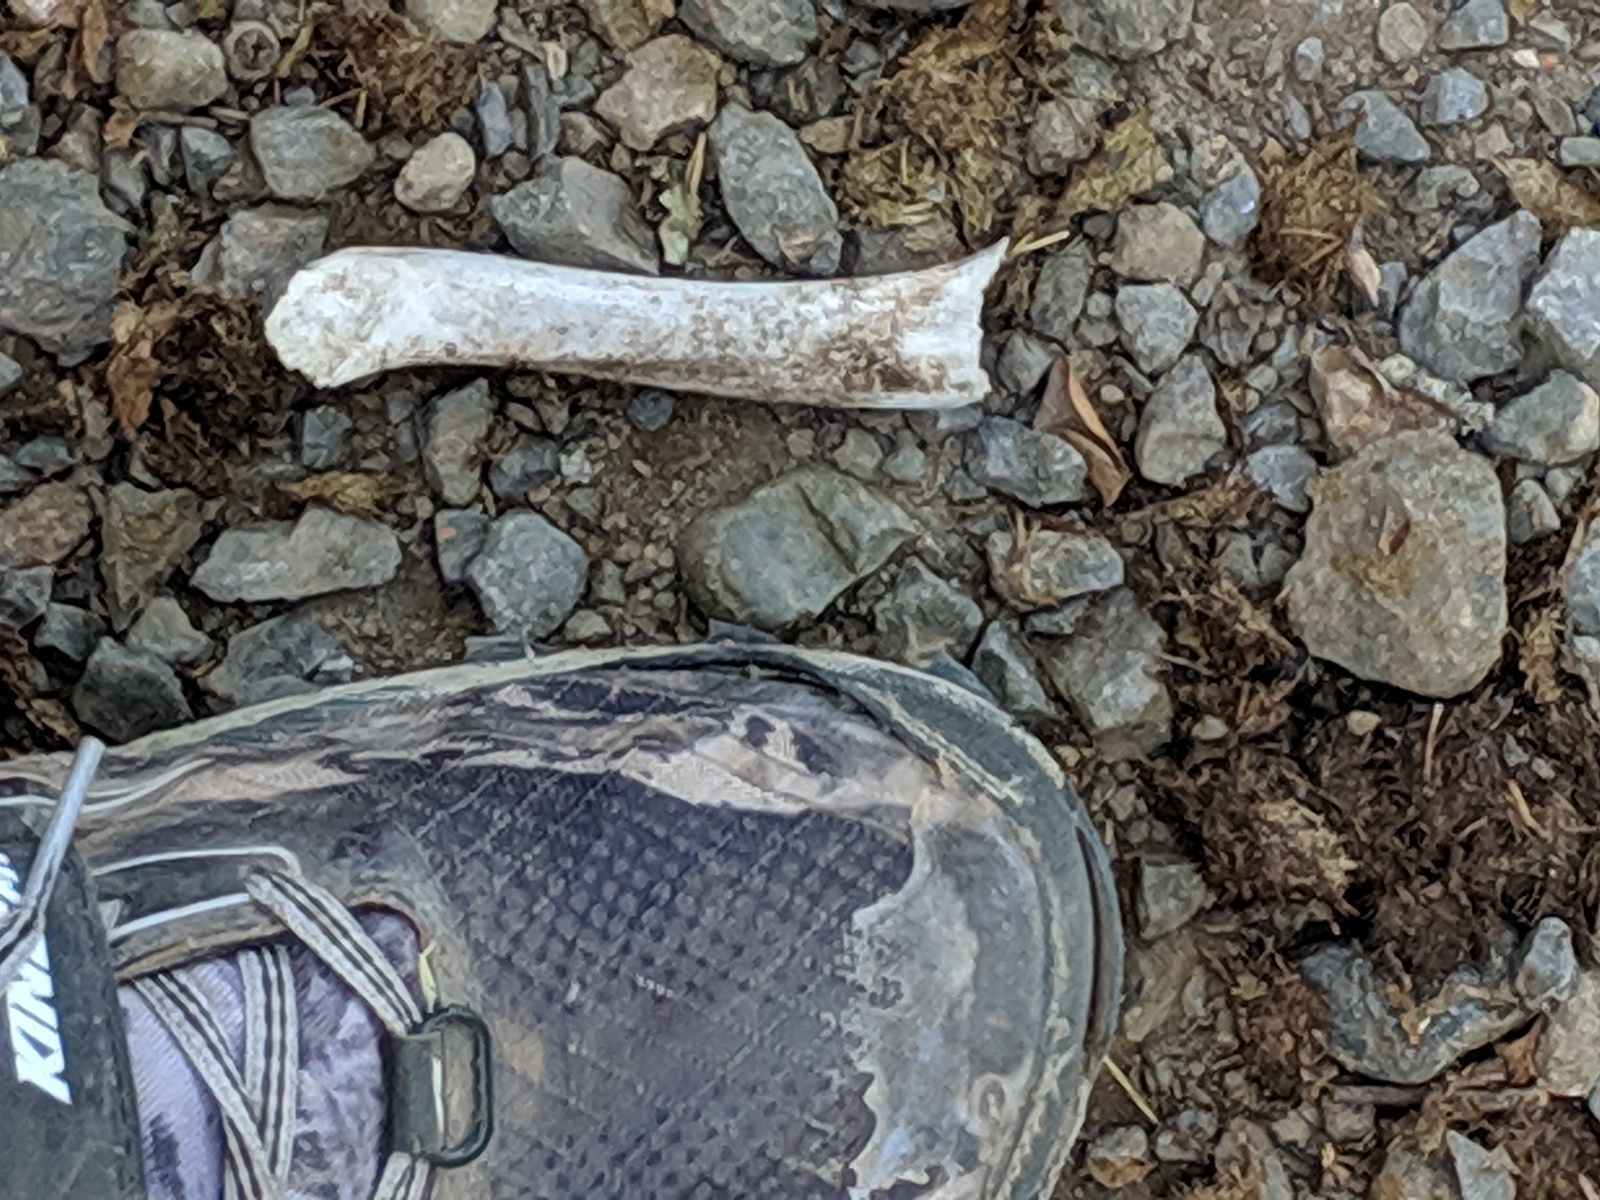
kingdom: Animalia
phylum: Chordata
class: Mammalia
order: Artiodactyla
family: Cervidae
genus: Odocoileus
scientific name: Odocoileus hemionus
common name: Mule deer
